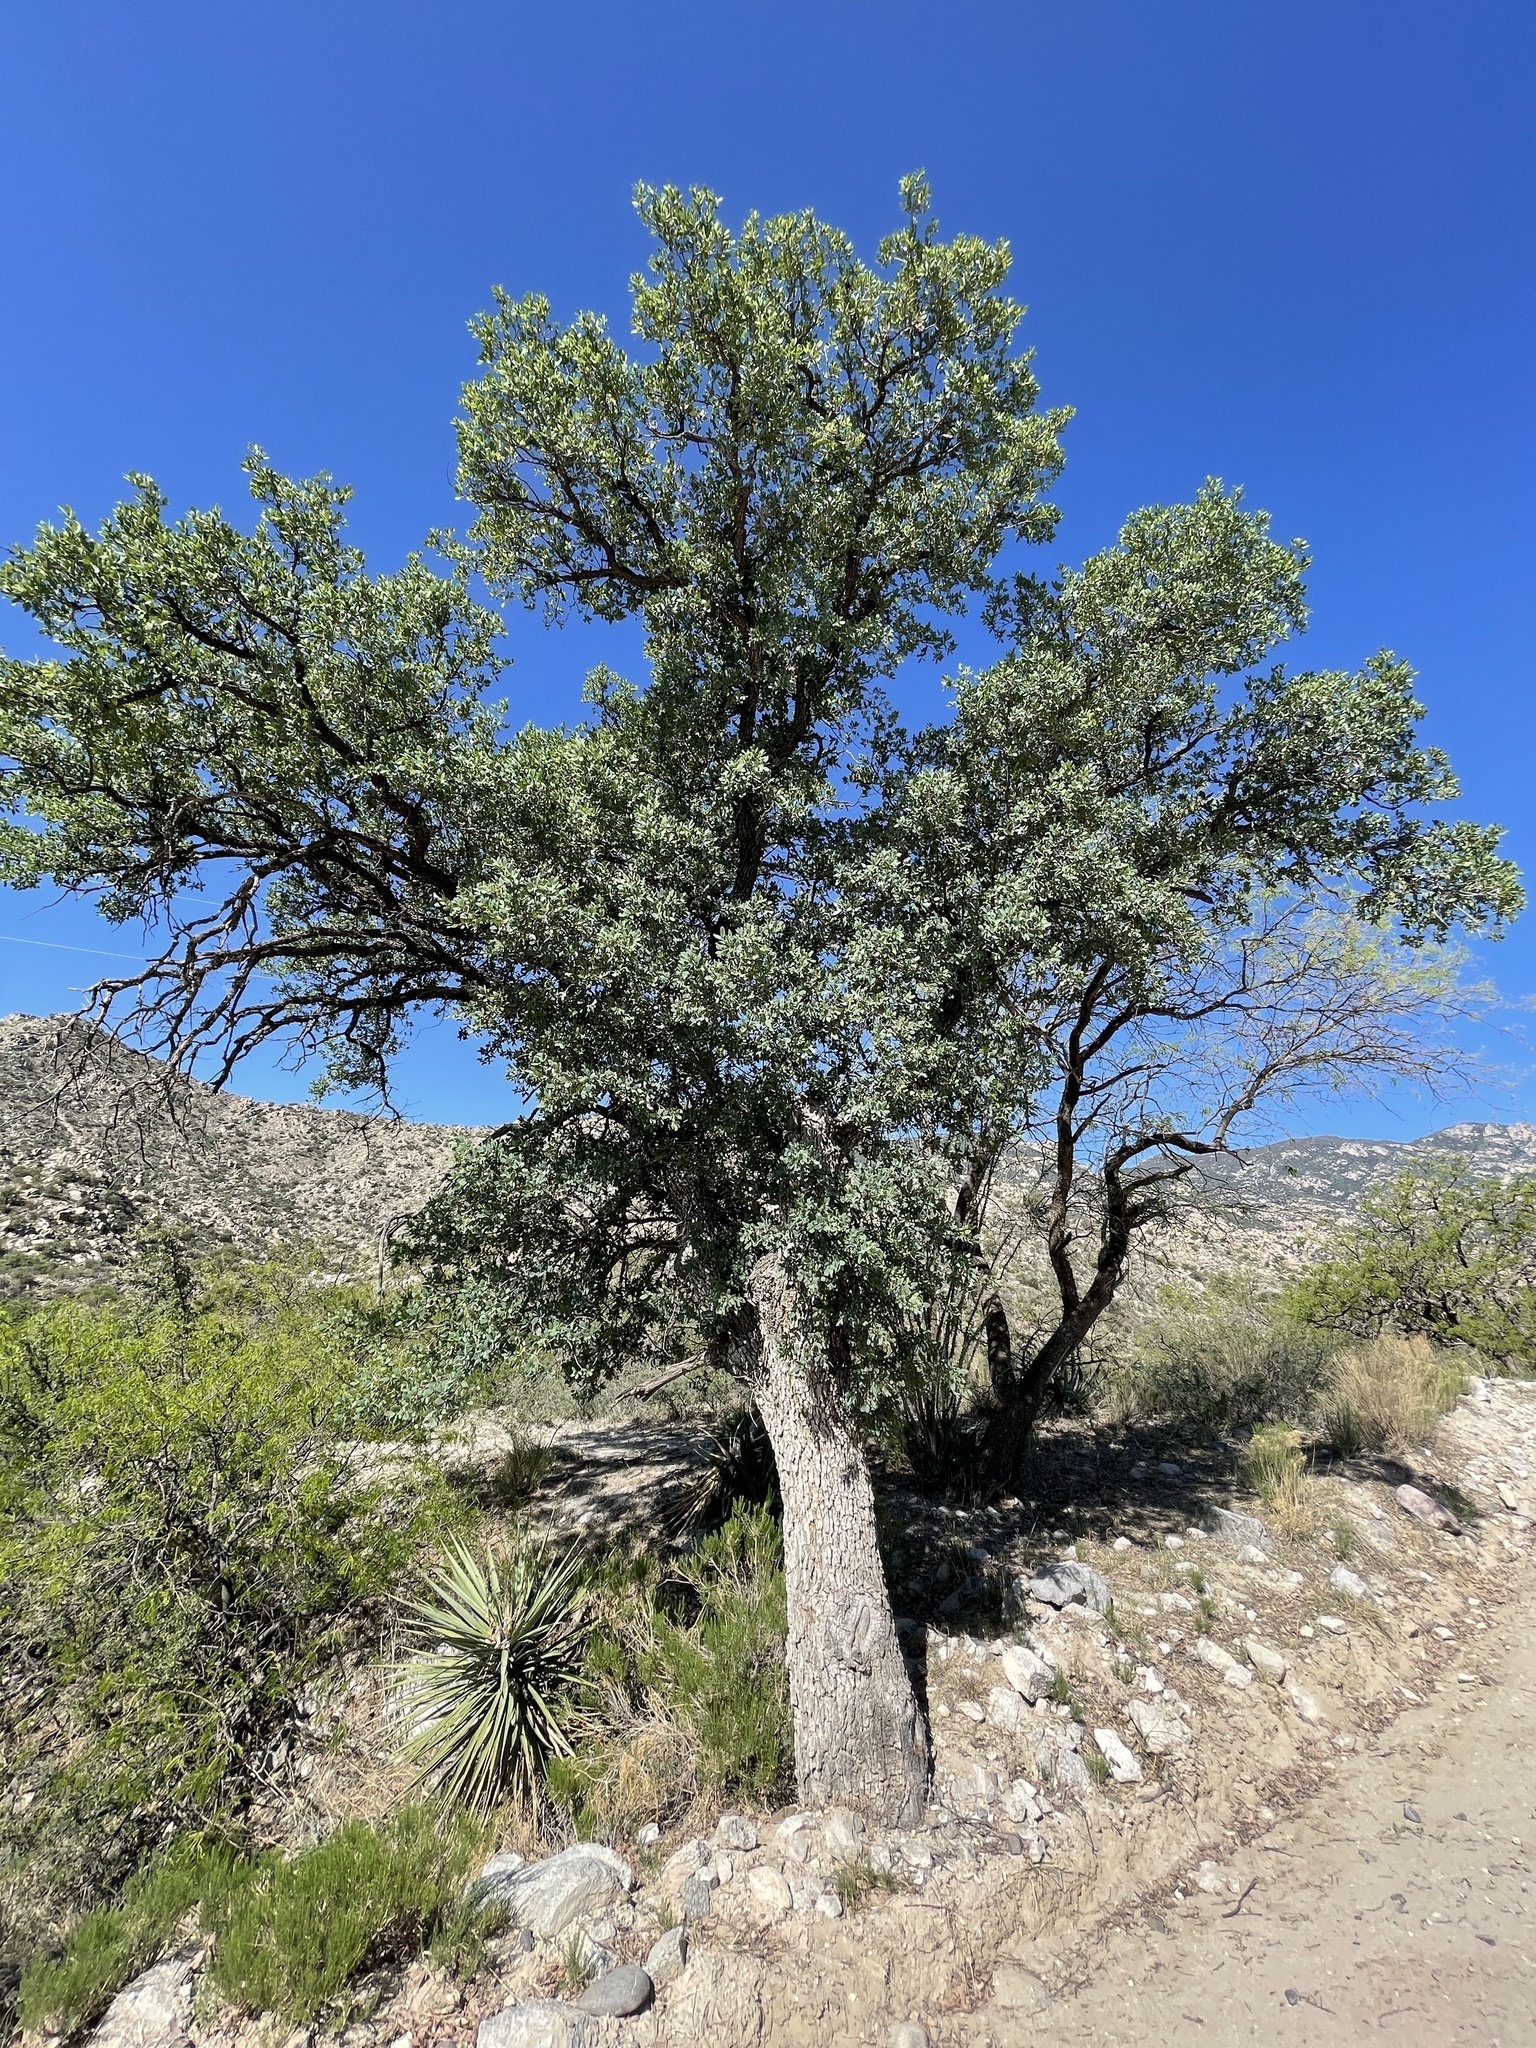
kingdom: Plantae
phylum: Tracheophyta
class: Magnoliopsida
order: Fagales
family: Fagaceae
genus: Quercus
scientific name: Quercus arizonica
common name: Arizona white oak
